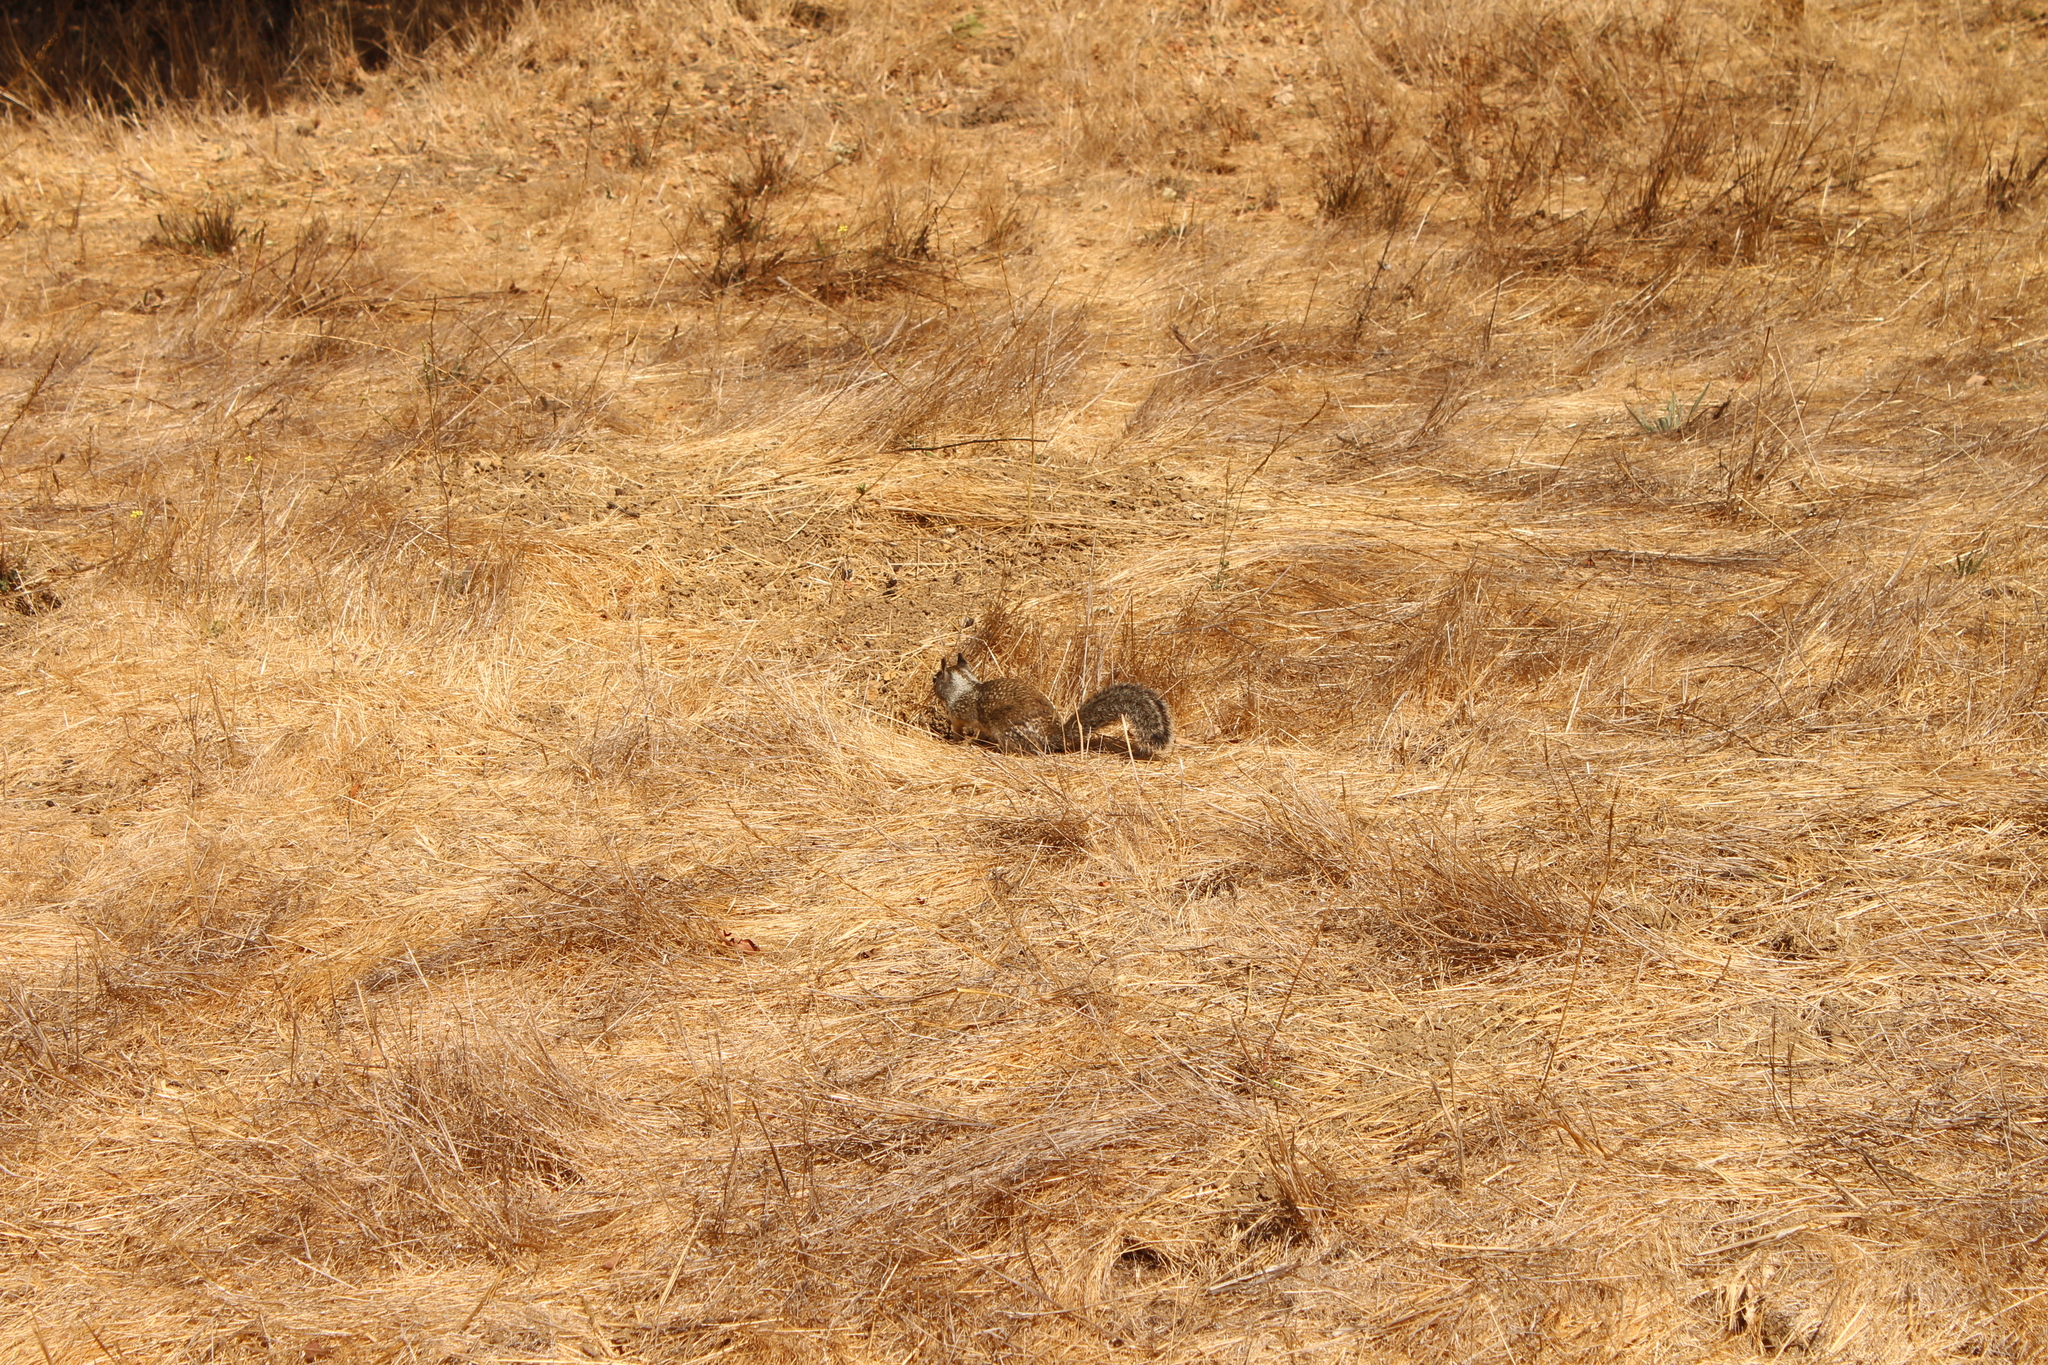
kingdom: Animalia
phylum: Chordata
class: Mammalia
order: Rodentia
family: Sciuridae
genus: Otospermophilus
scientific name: Otospermophilus beecheyi
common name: California ground squirrel
